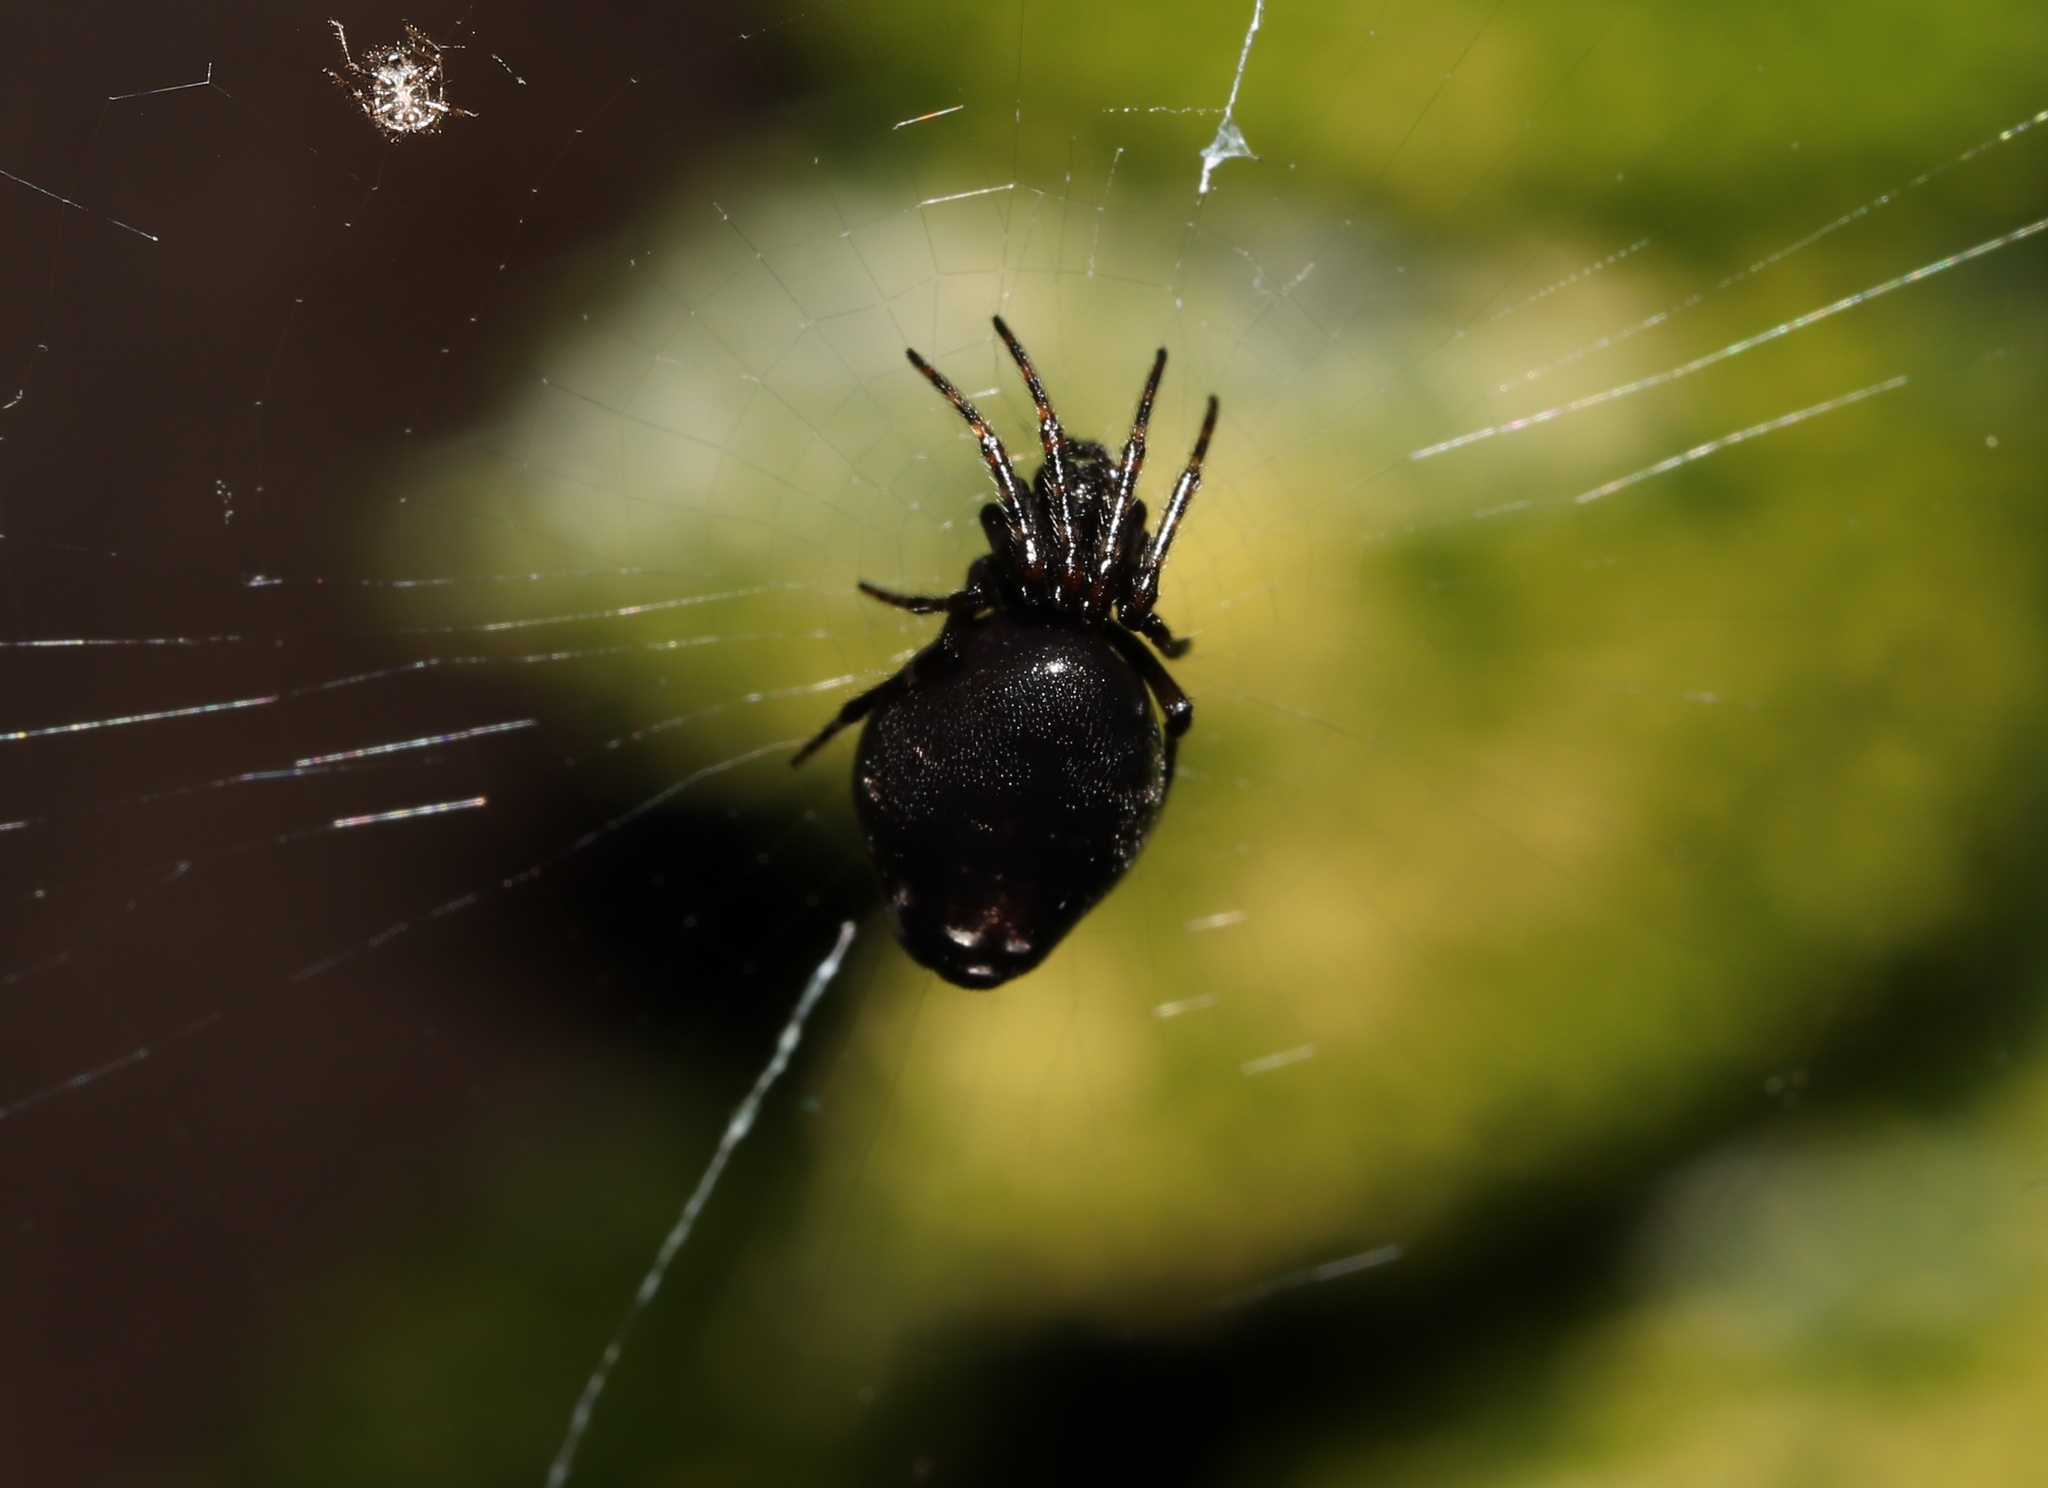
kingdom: Animalia
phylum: Arthropoda
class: Arachnida
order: Araneae
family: Araneidae
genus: Cyclosa
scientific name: Cyclosa argenteoalba
